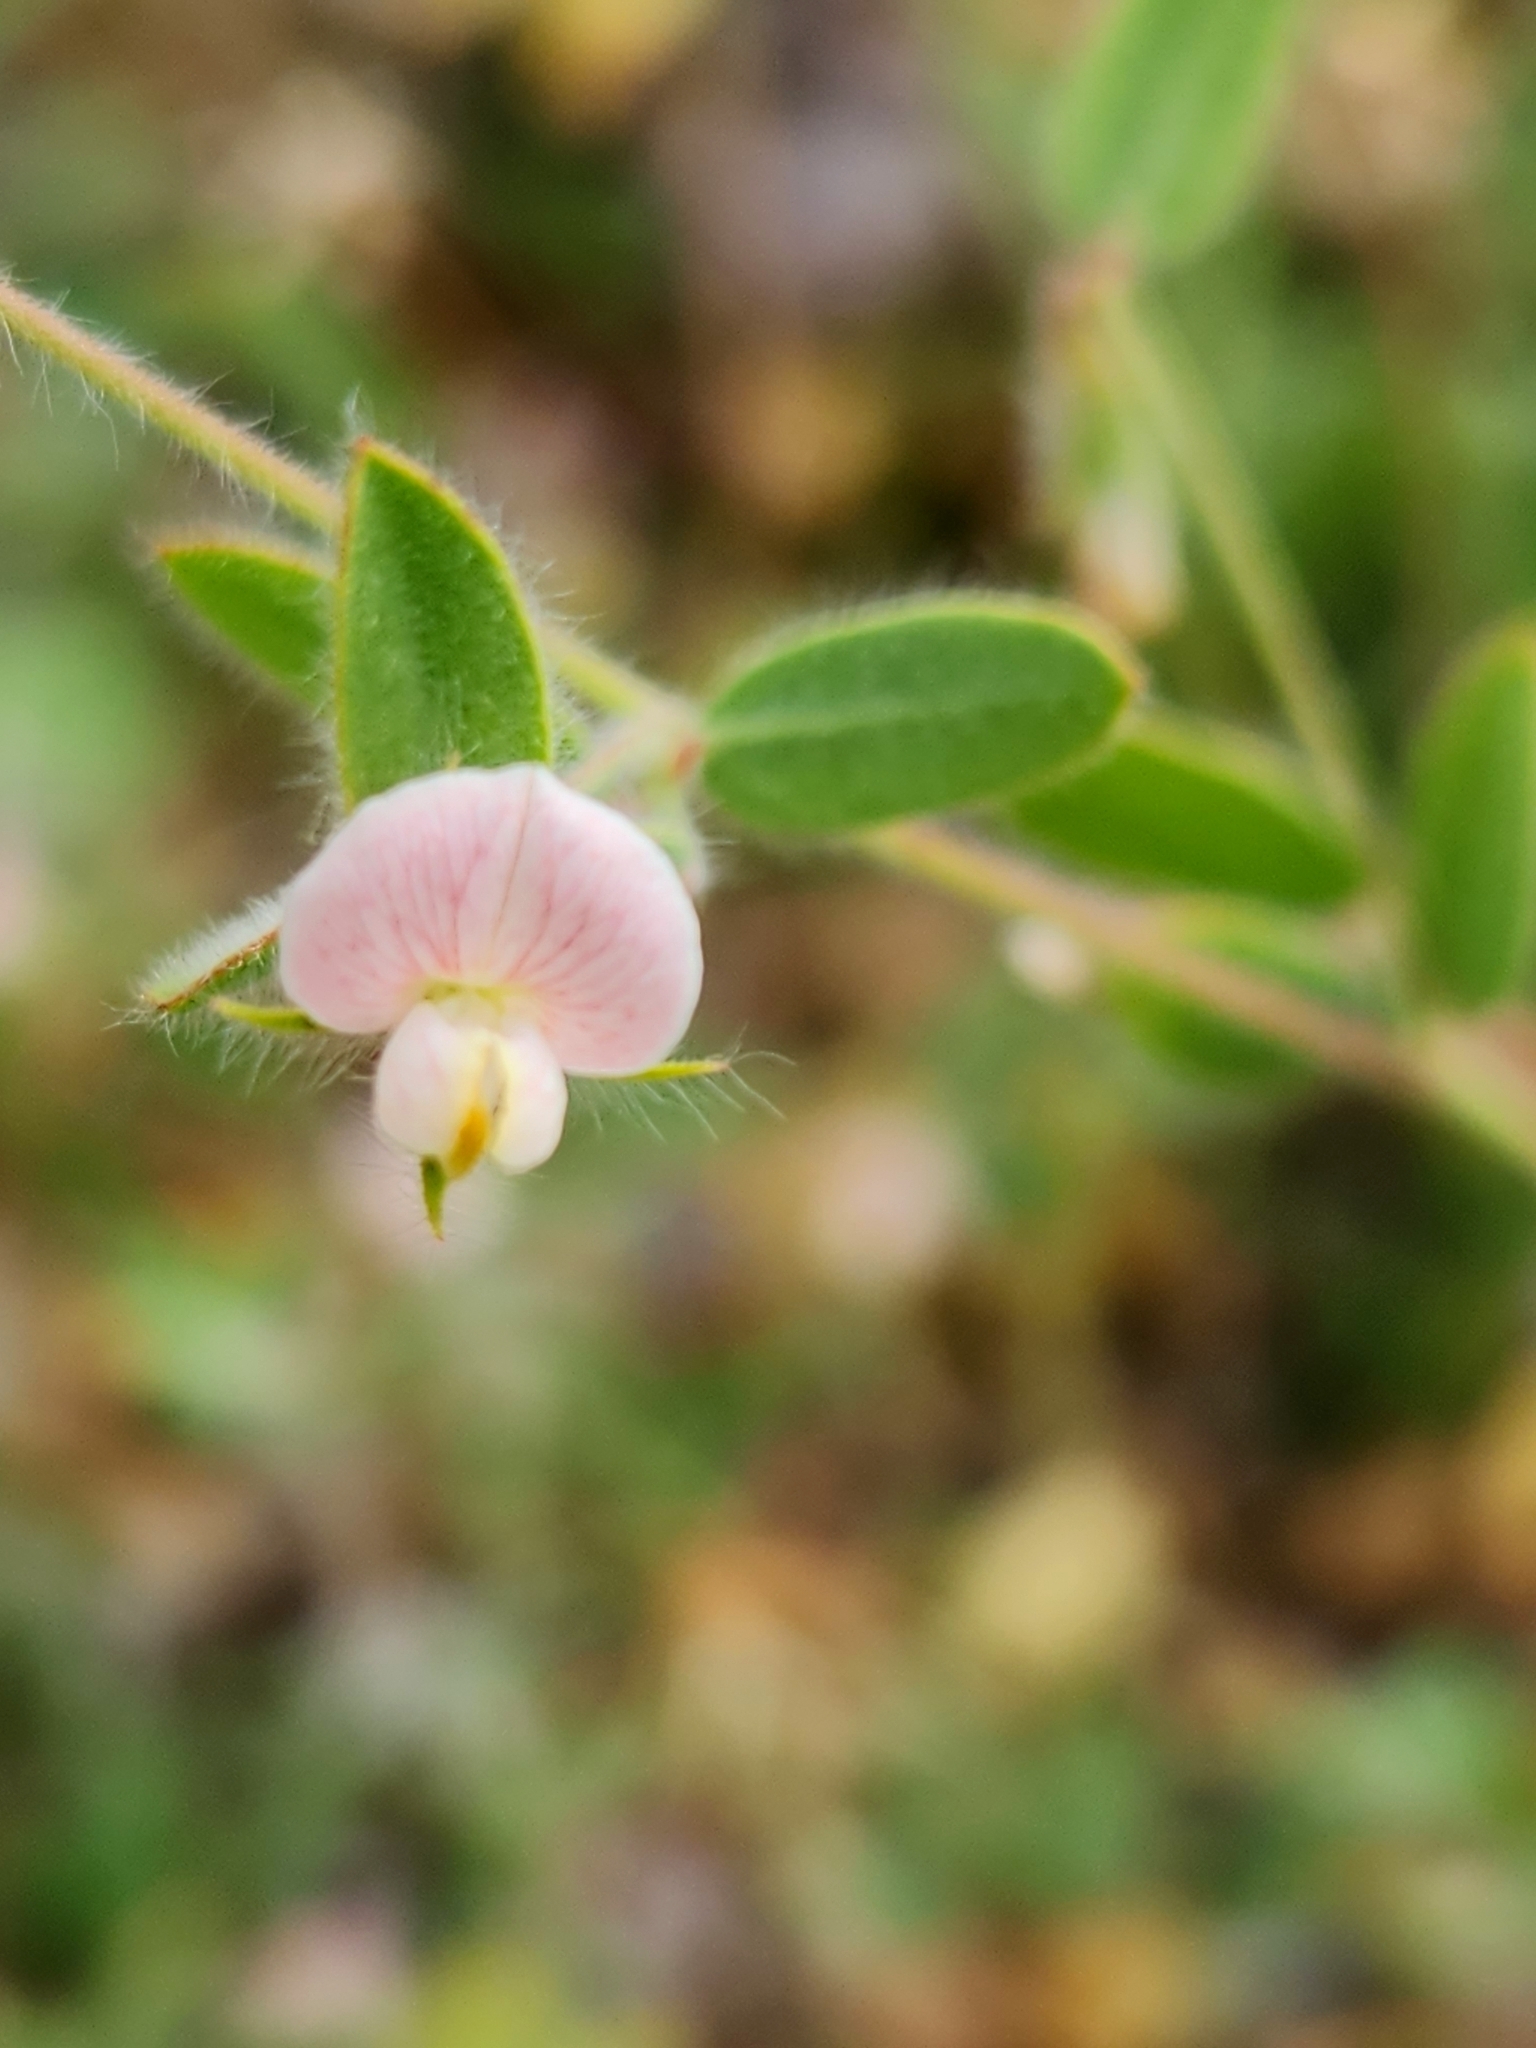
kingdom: Plantae
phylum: Tracheophyta
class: Magnoliopsida
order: Fabales
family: Fabaceae
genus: Acmispon
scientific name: Acmispon americanus
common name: American bird's-foot trefoil
